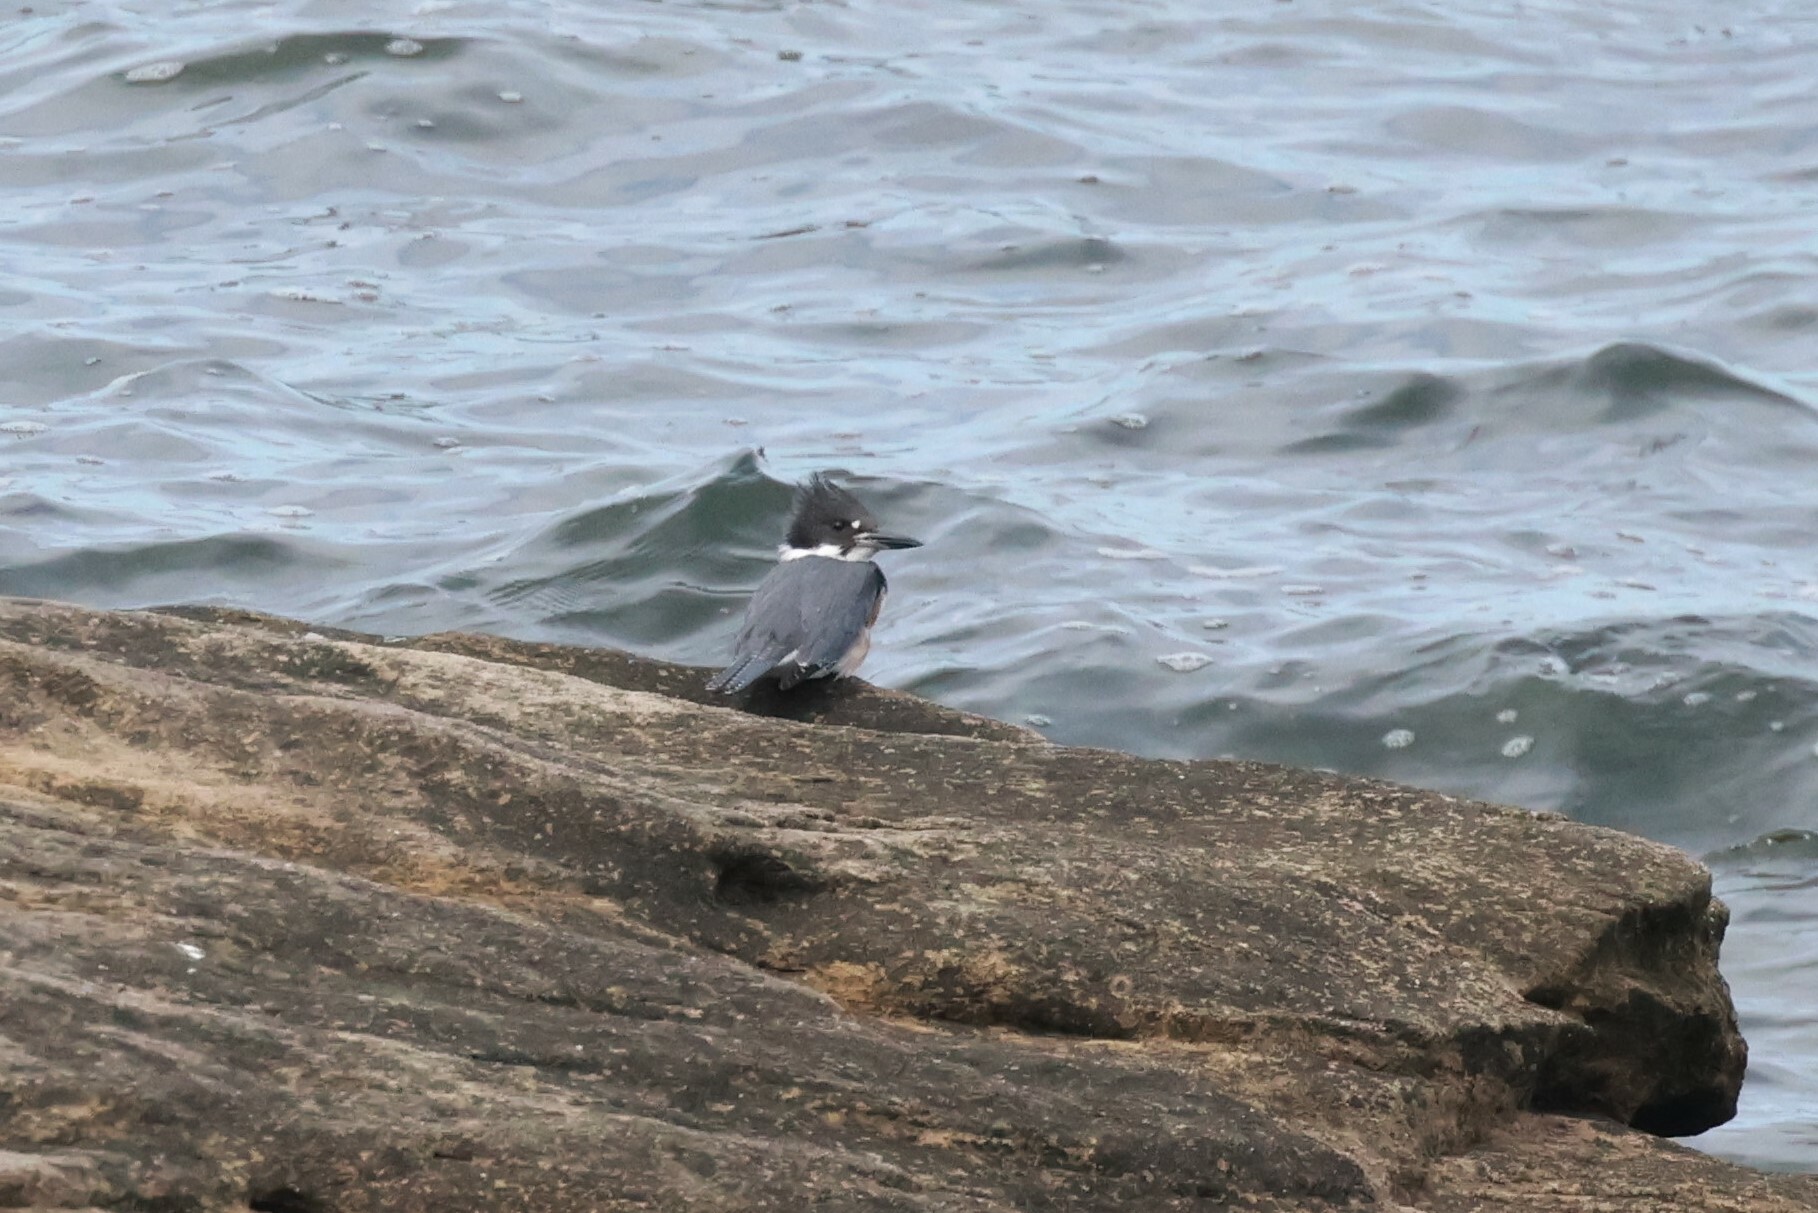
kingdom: Animalia
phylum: Chordata
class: Aves
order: Coraciiformes
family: Alcedinidae
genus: Megaceryle
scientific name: Megaceryle alcyon
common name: Belted kingfisher
